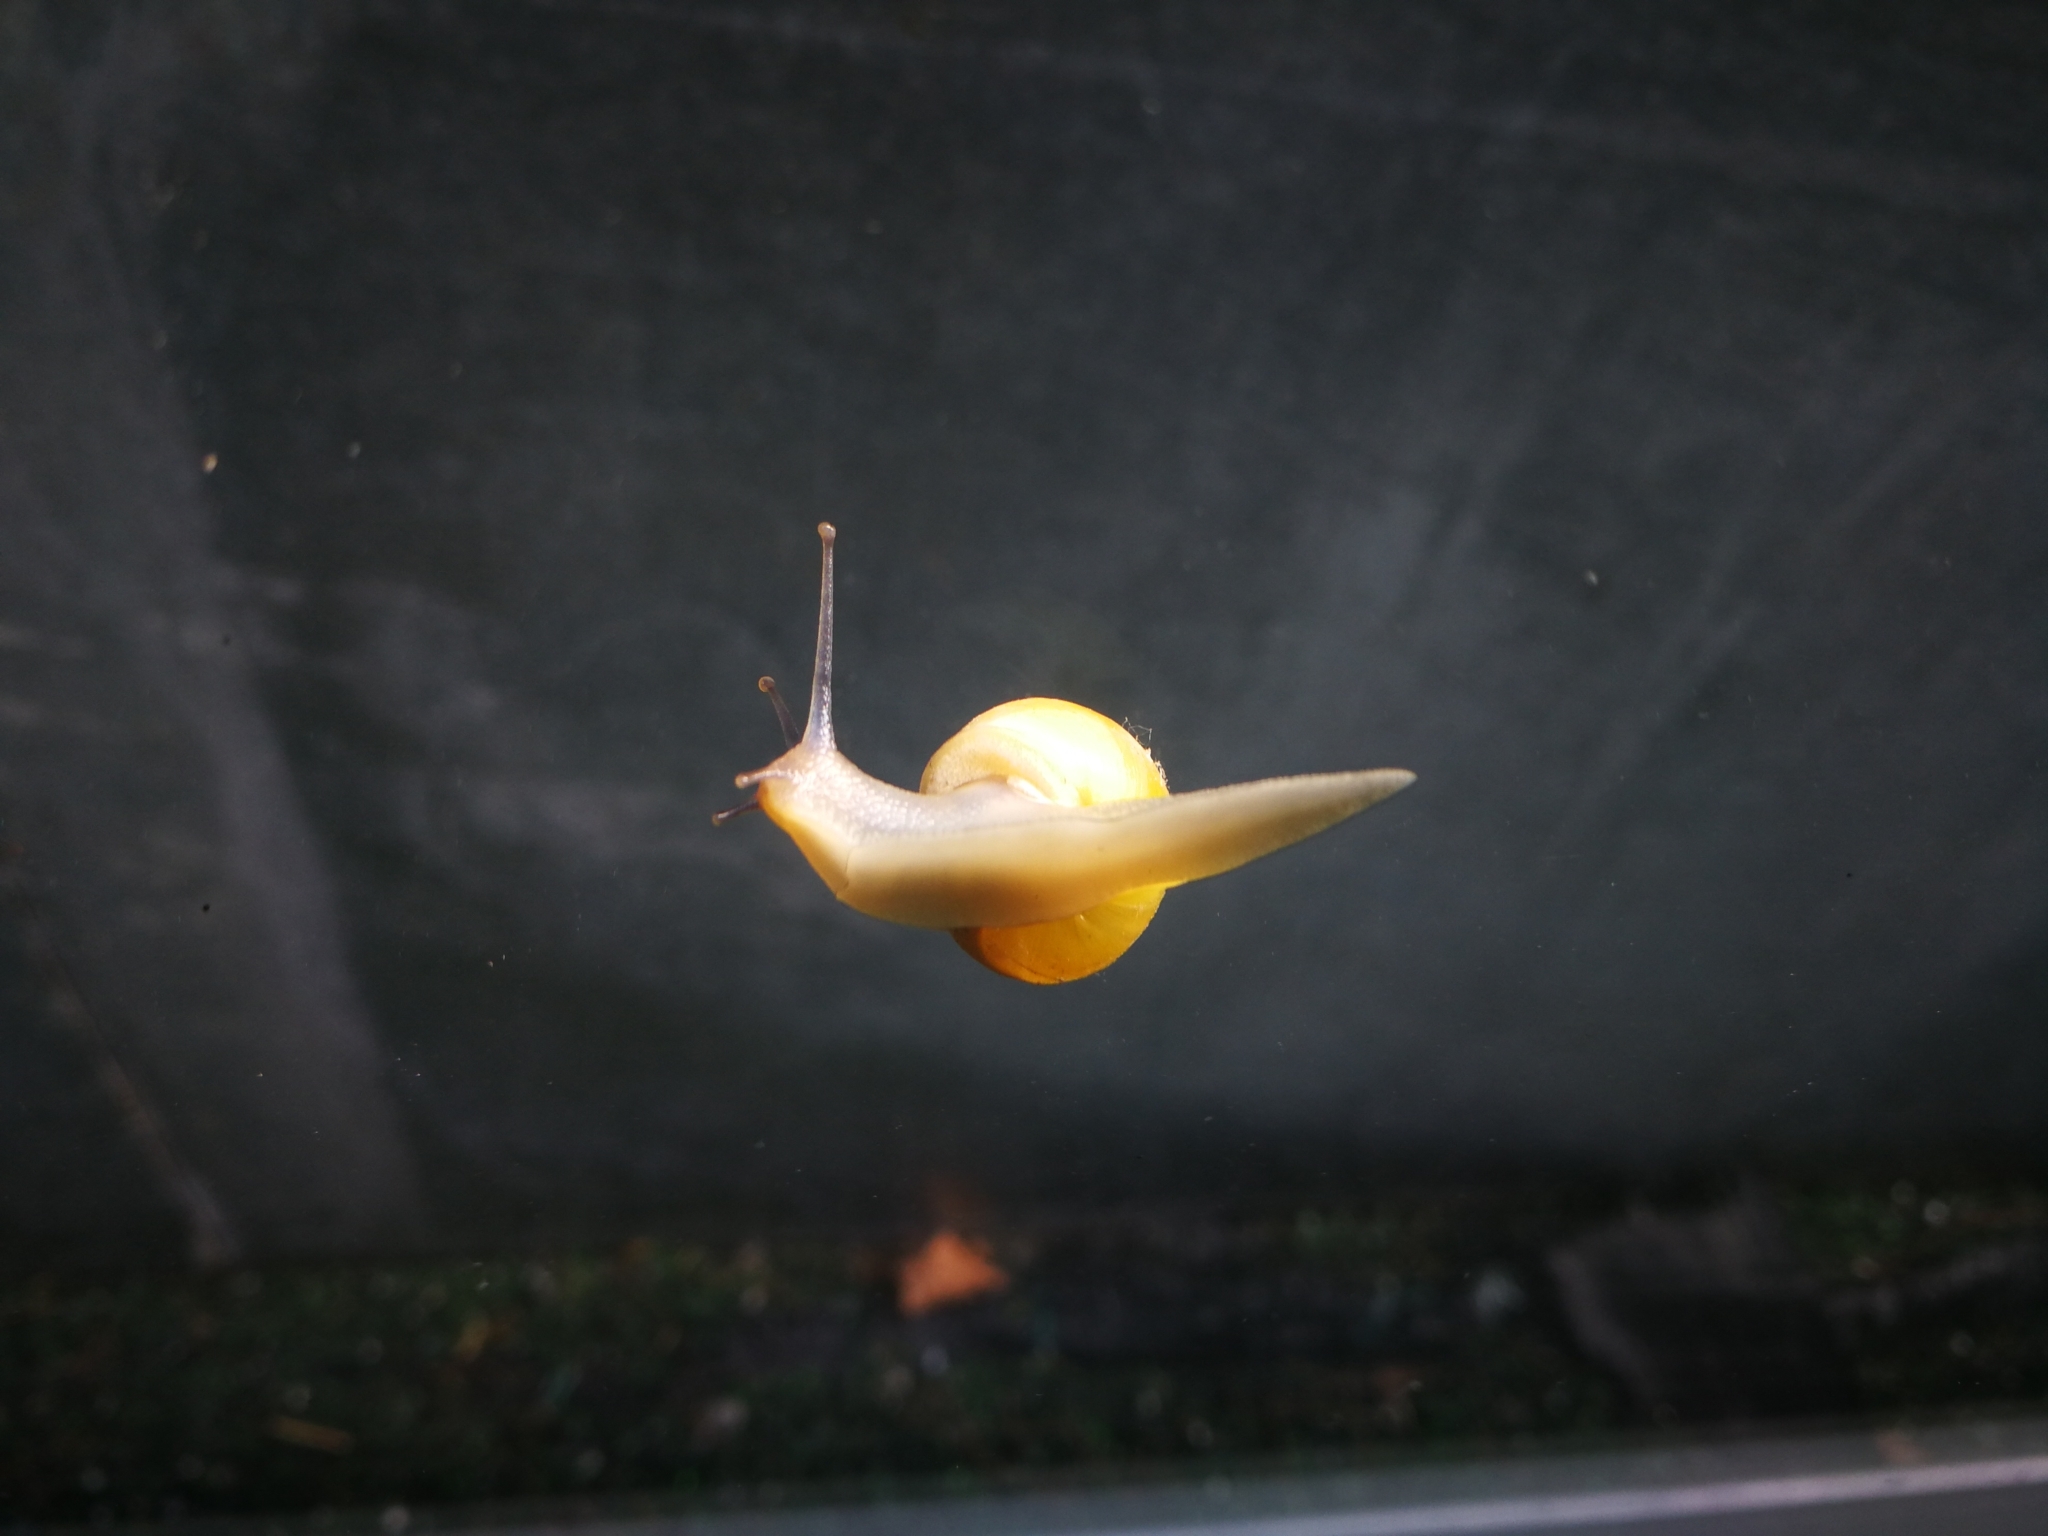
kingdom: Animalia
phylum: Mollusca
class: Gastropoda
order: Stylommatophora
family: Helicidae
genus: Cepaea
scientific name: Cepaea hortensis
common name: White-lip gardensnail
